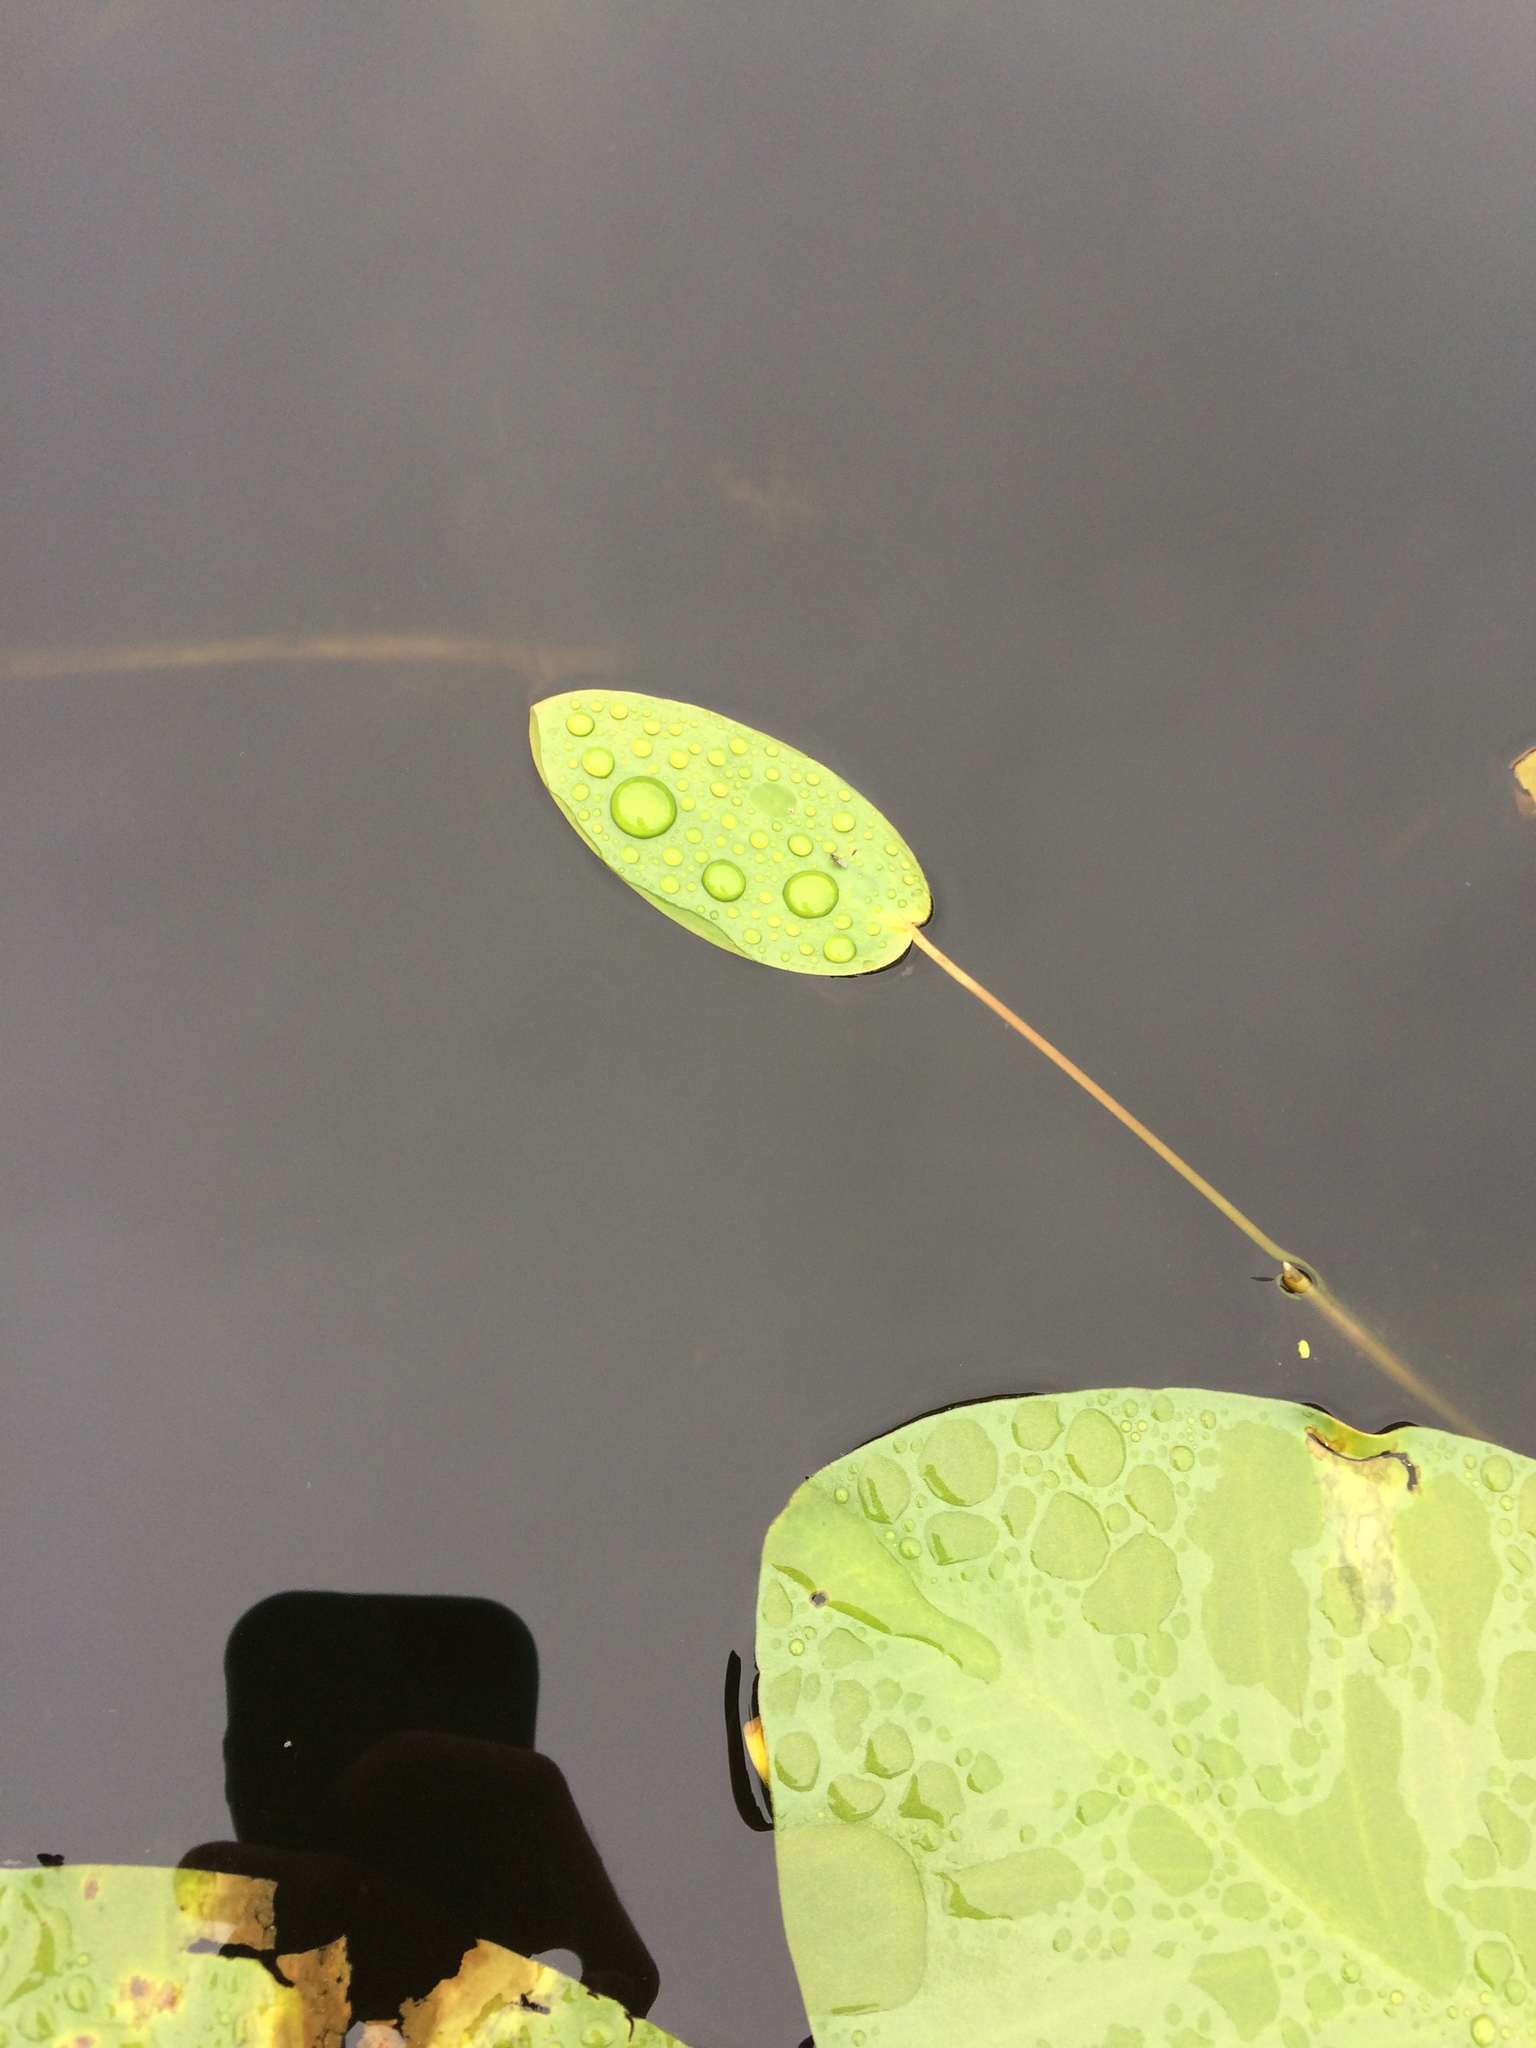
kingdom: Plantae
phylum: Tracheophyta
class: Liliopsida
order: Alismatales
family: Potamogetonaceae
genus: Potamogeton
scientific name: Potamogeton natans
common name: Broad-leaved pondweed
